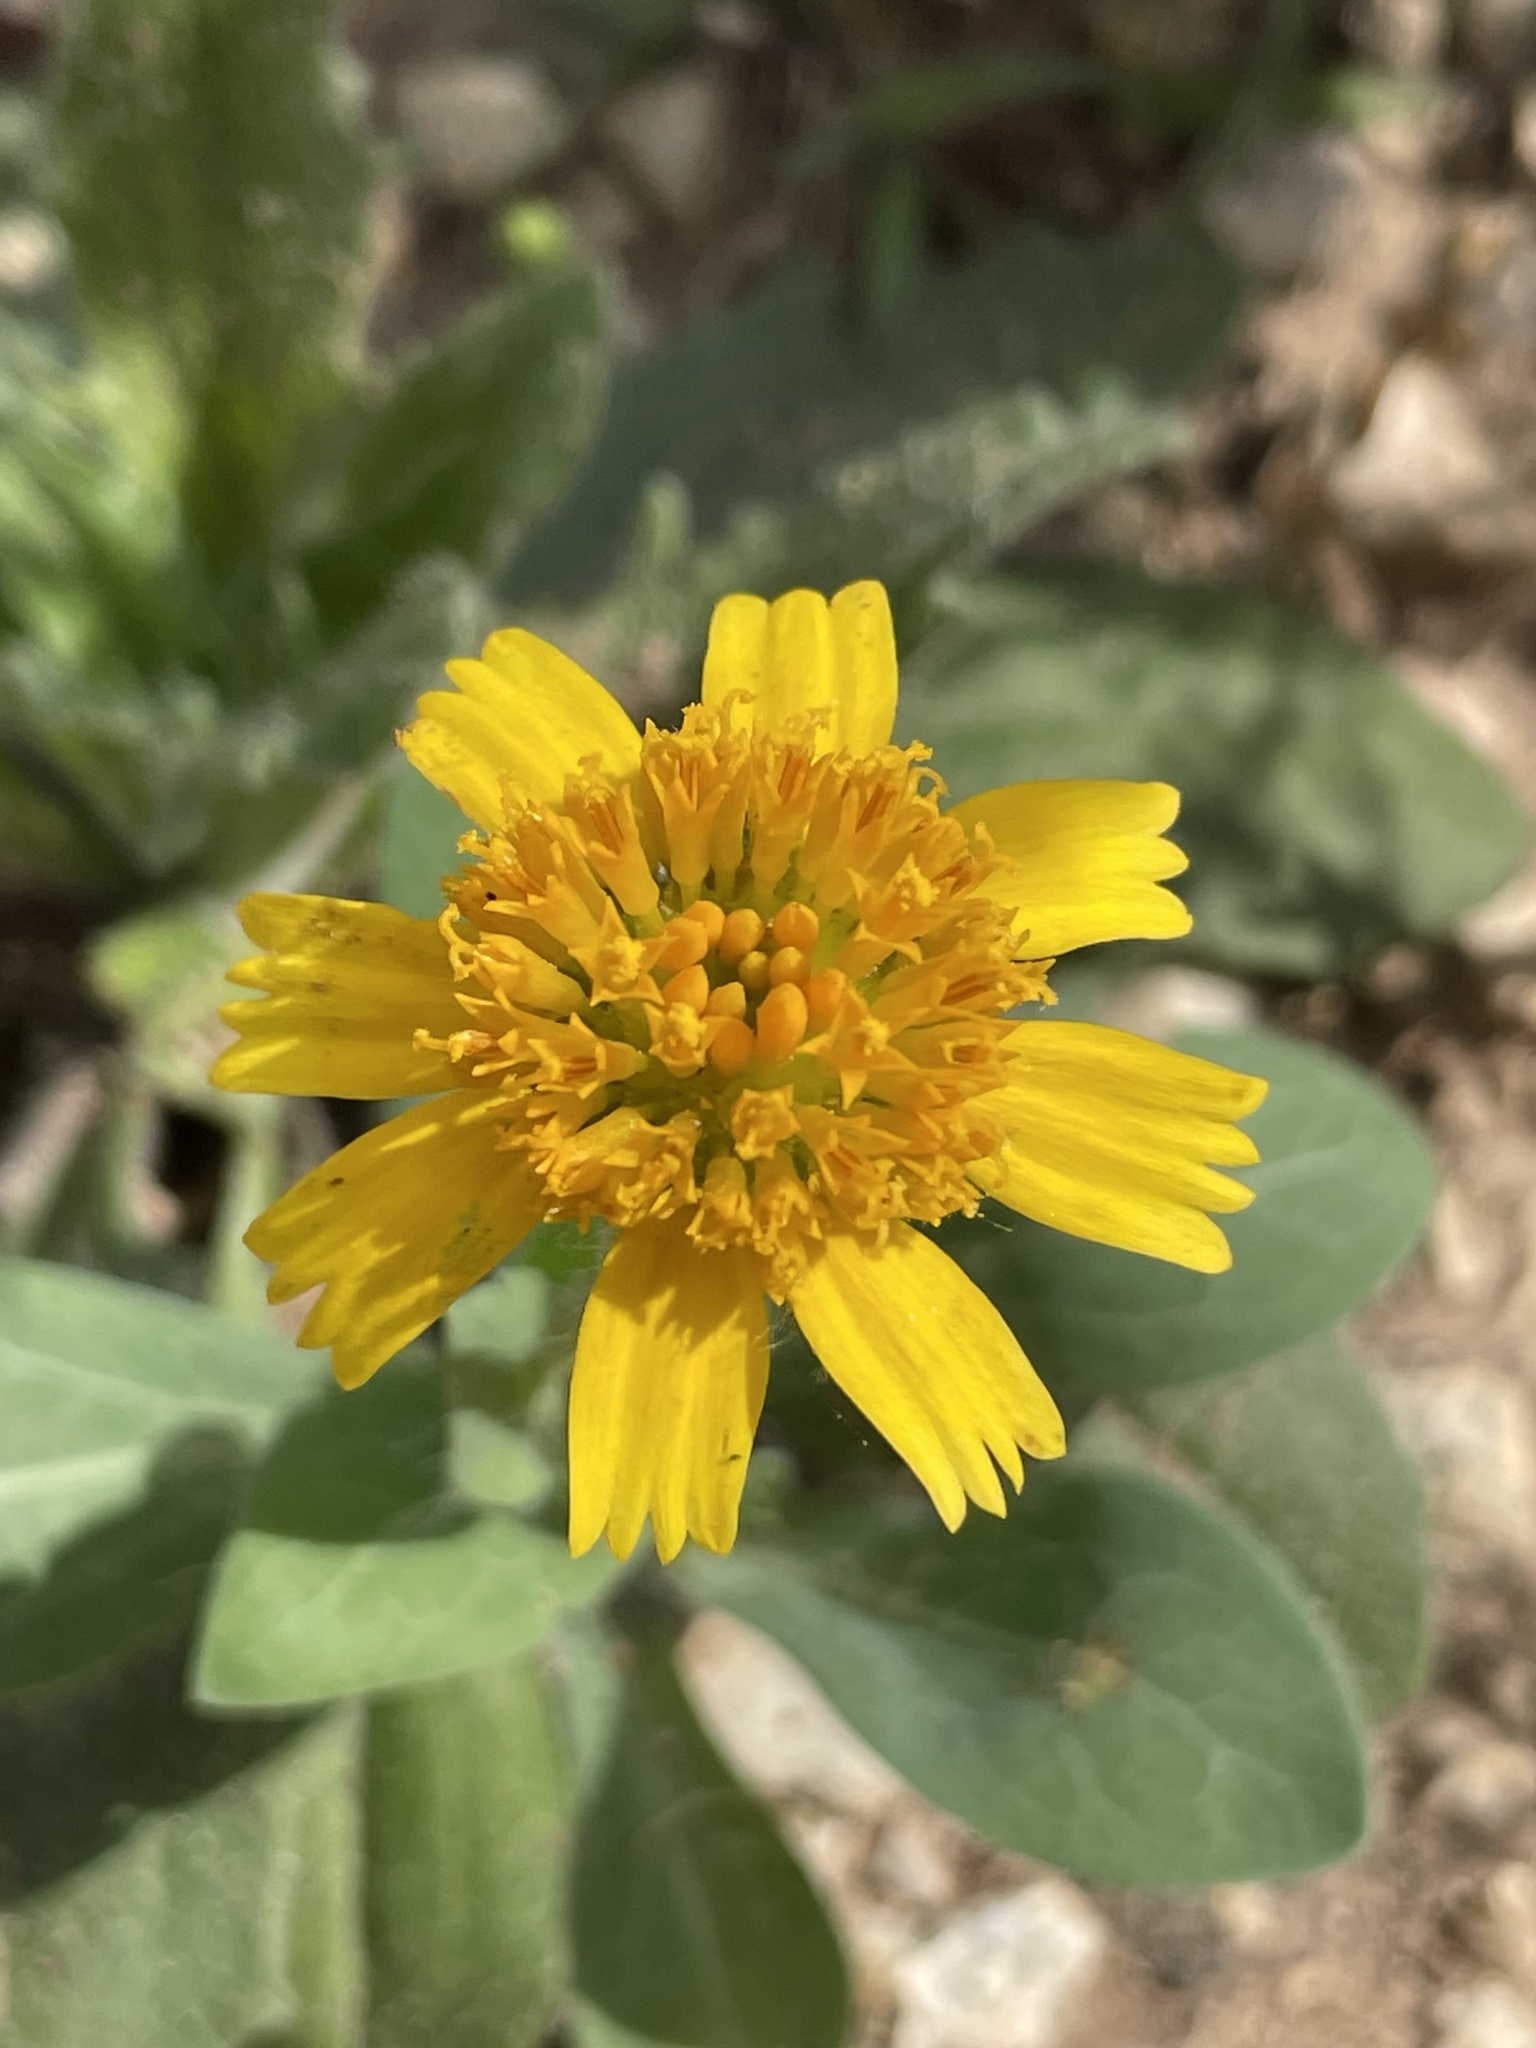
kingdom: Plantae
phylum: Tracheophyta
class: Magnoliopsida
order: Asterales
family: Asteraceae
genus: Amblyolepis
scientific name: Amblyolepis setigera
